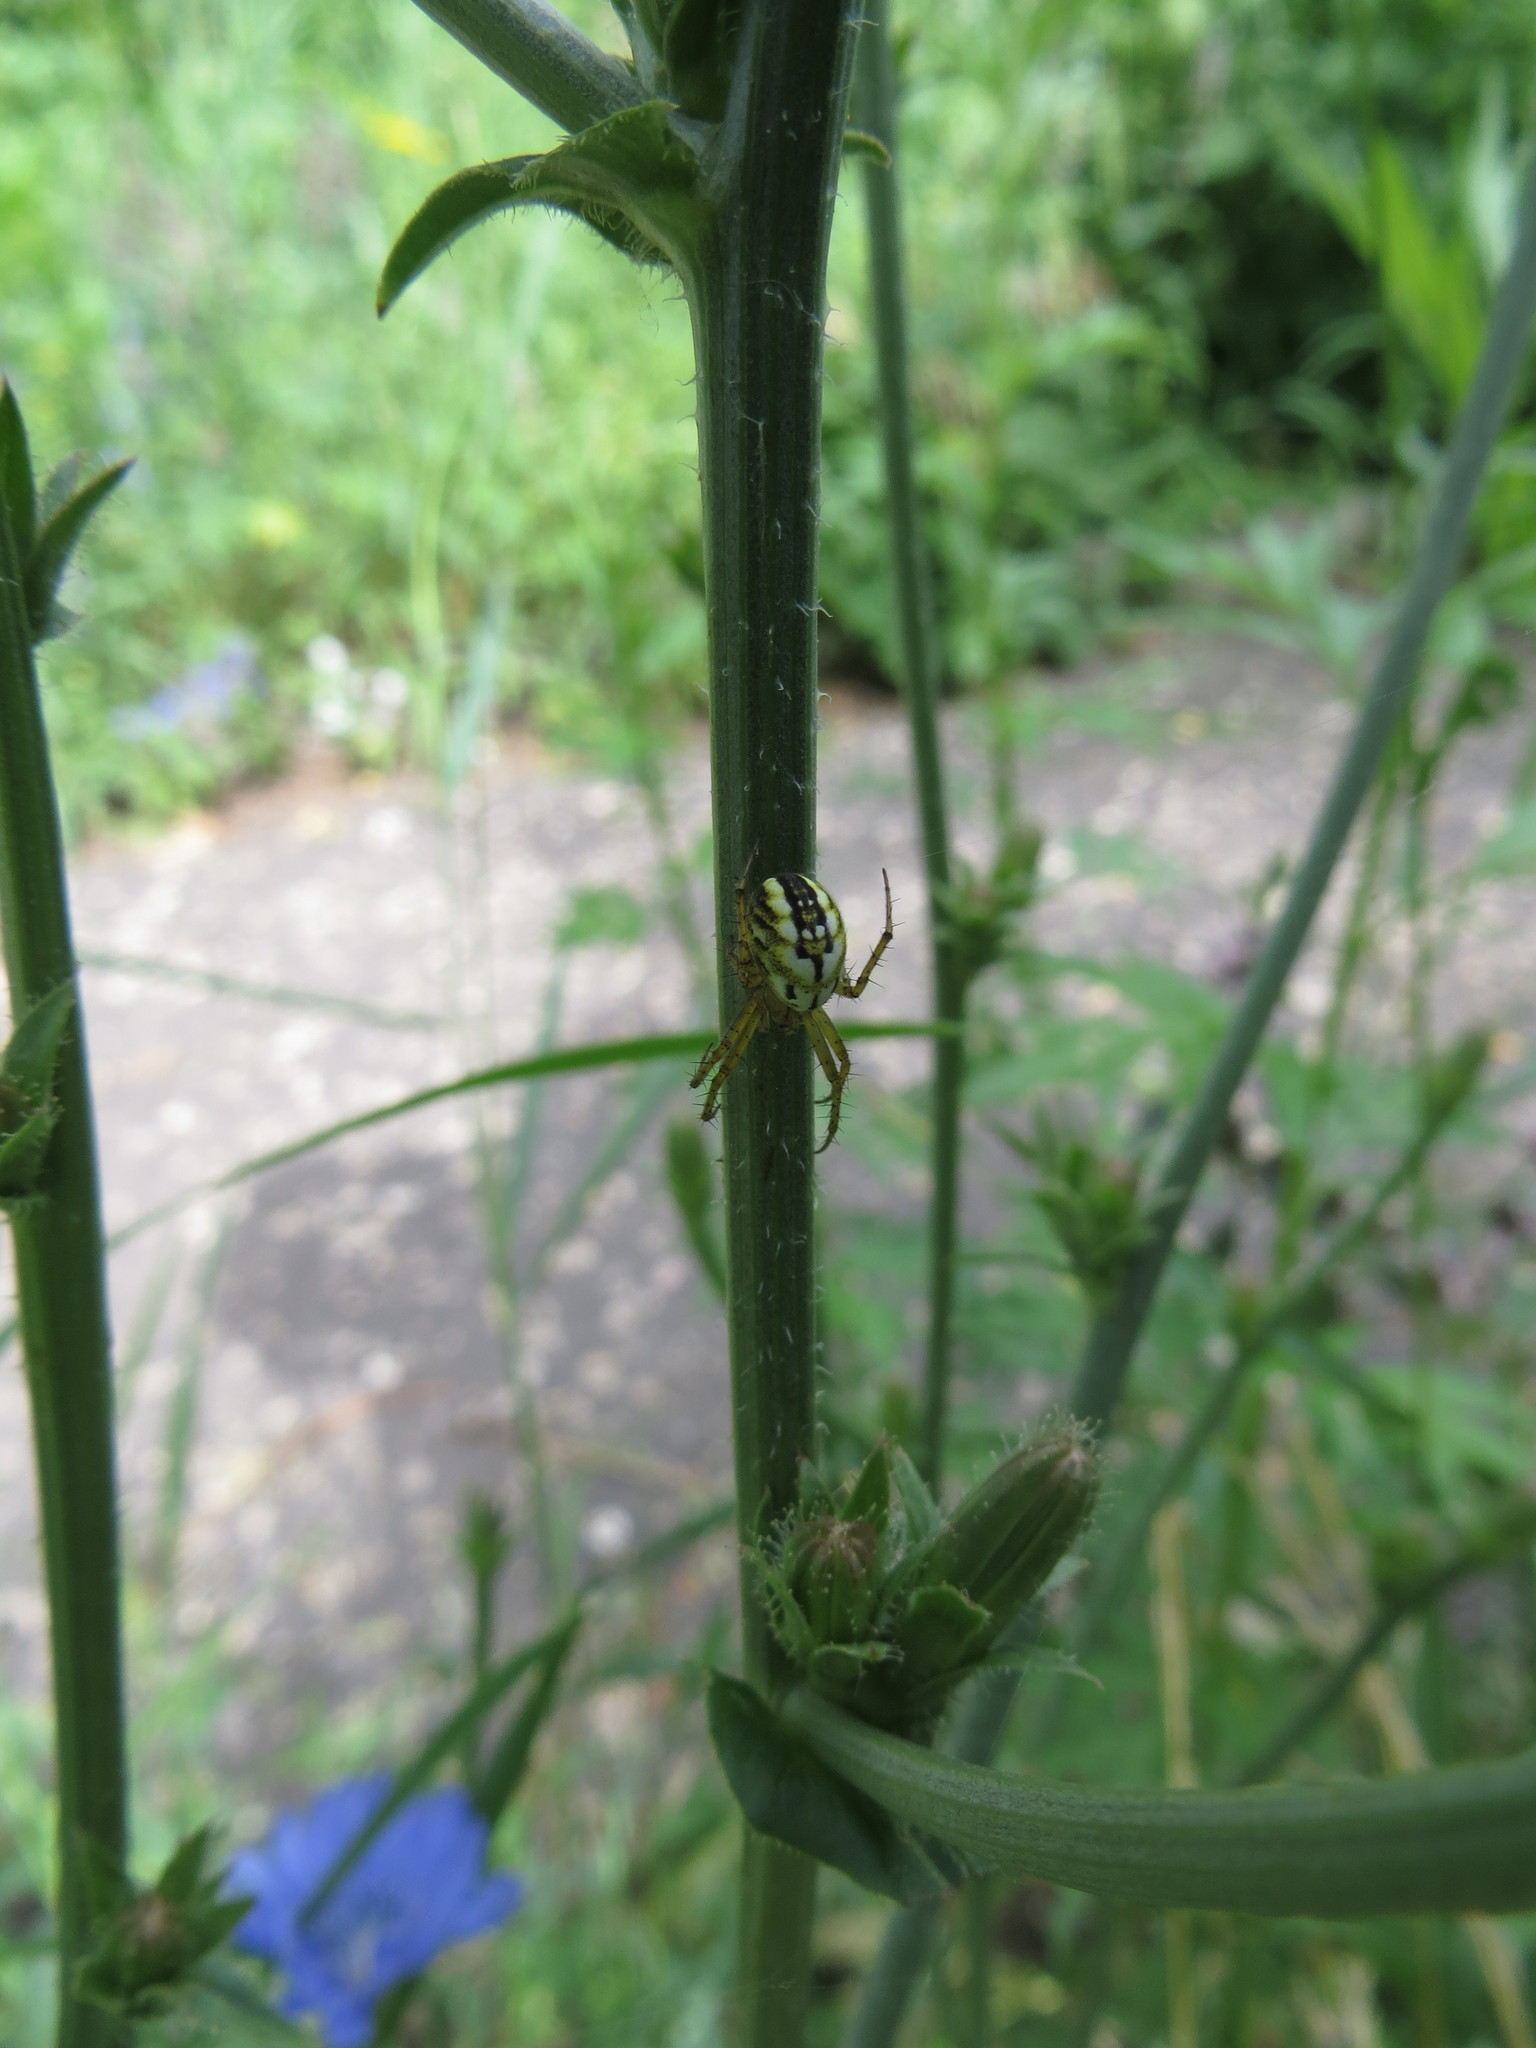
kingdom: Animalia
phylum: Arthropoda
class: Arachnida
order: Araneae
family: Araneidae
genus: Mangora
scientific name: Mangora acalypha
